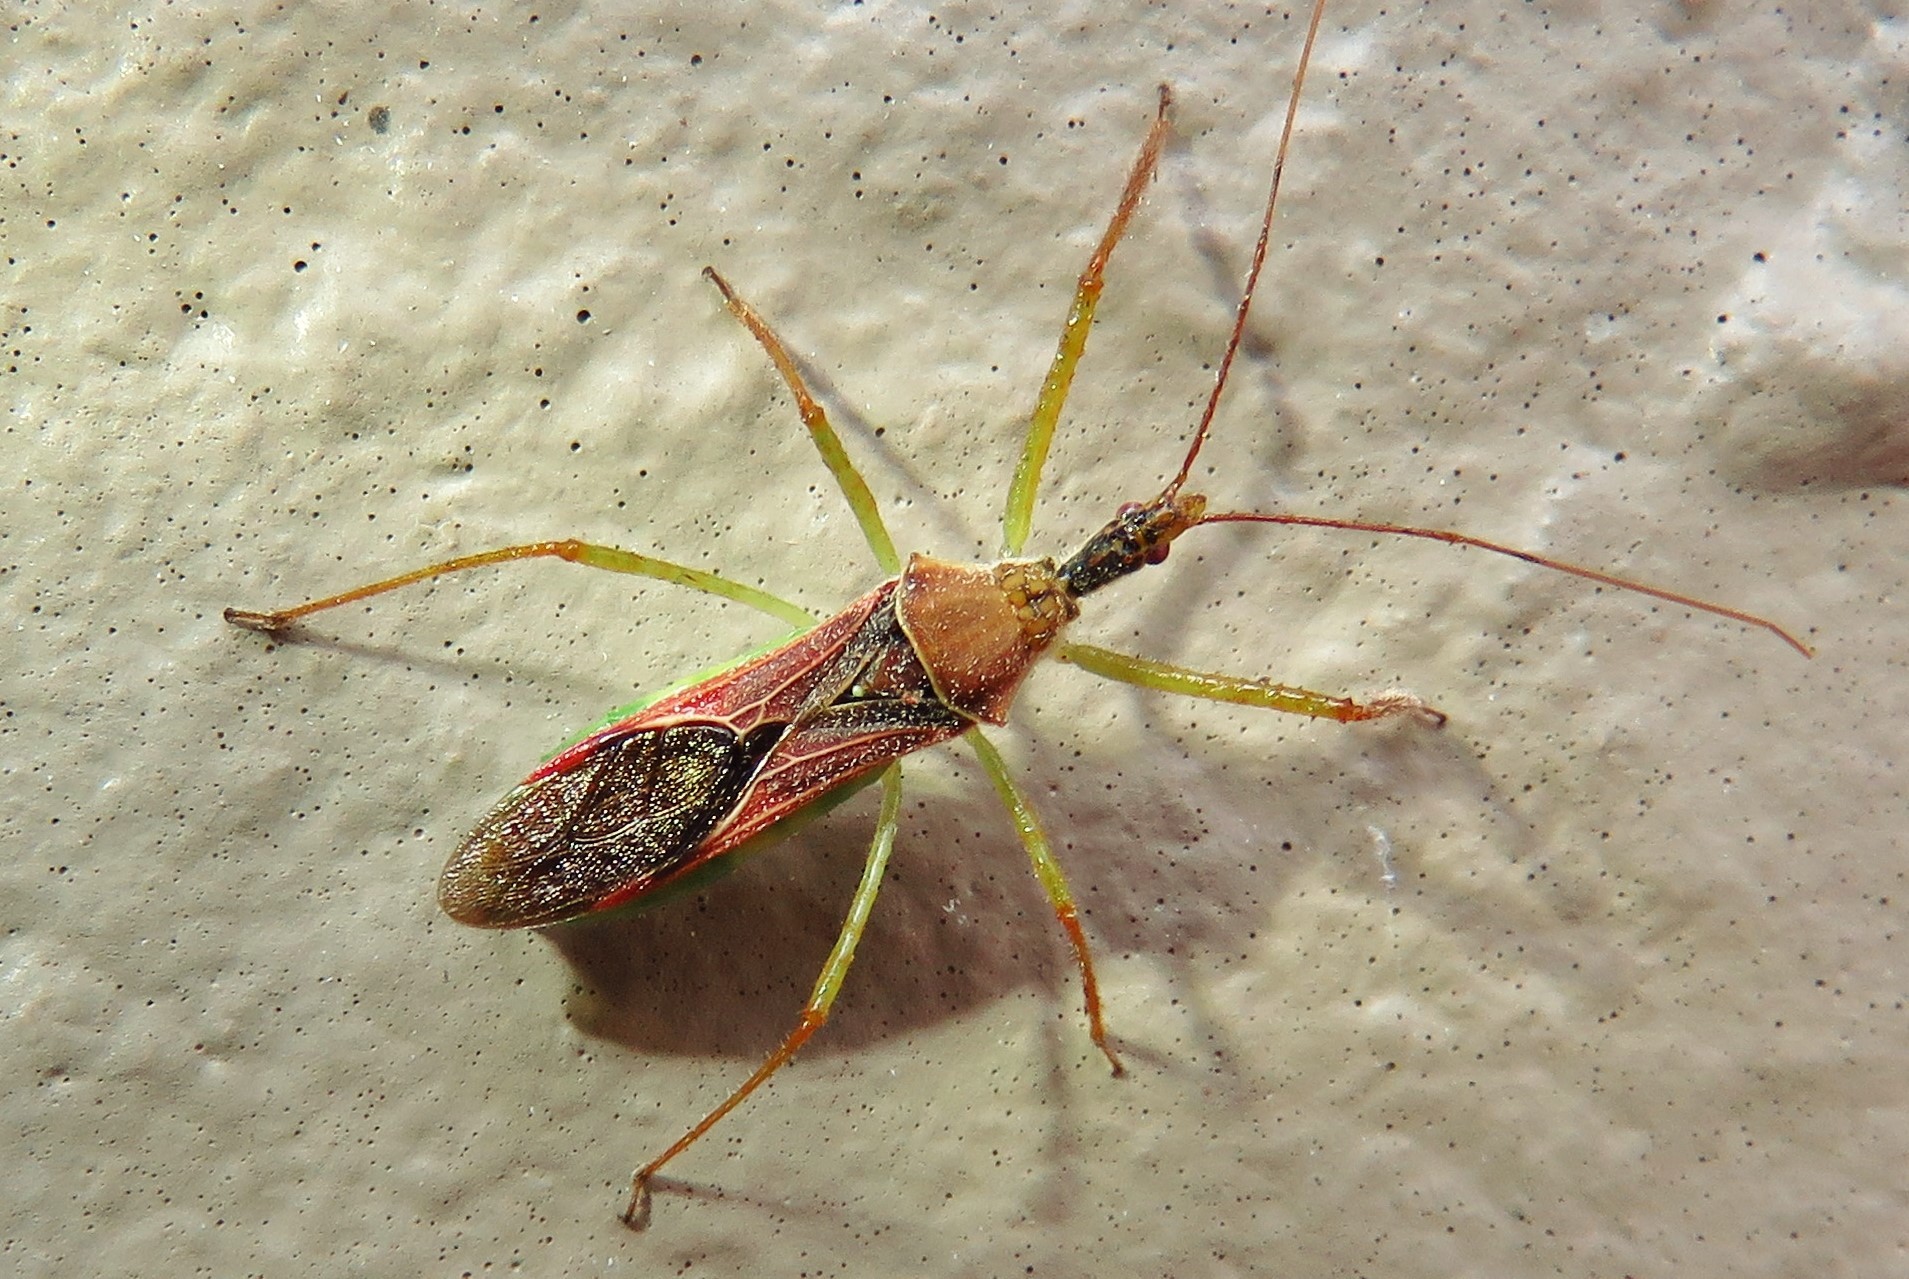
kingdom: Animalia
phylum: Arthropoda
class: Insecta
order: Hemiptera
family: Reduviidae
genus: Zelus
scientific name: Zelus renardii
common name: Assassin bug
